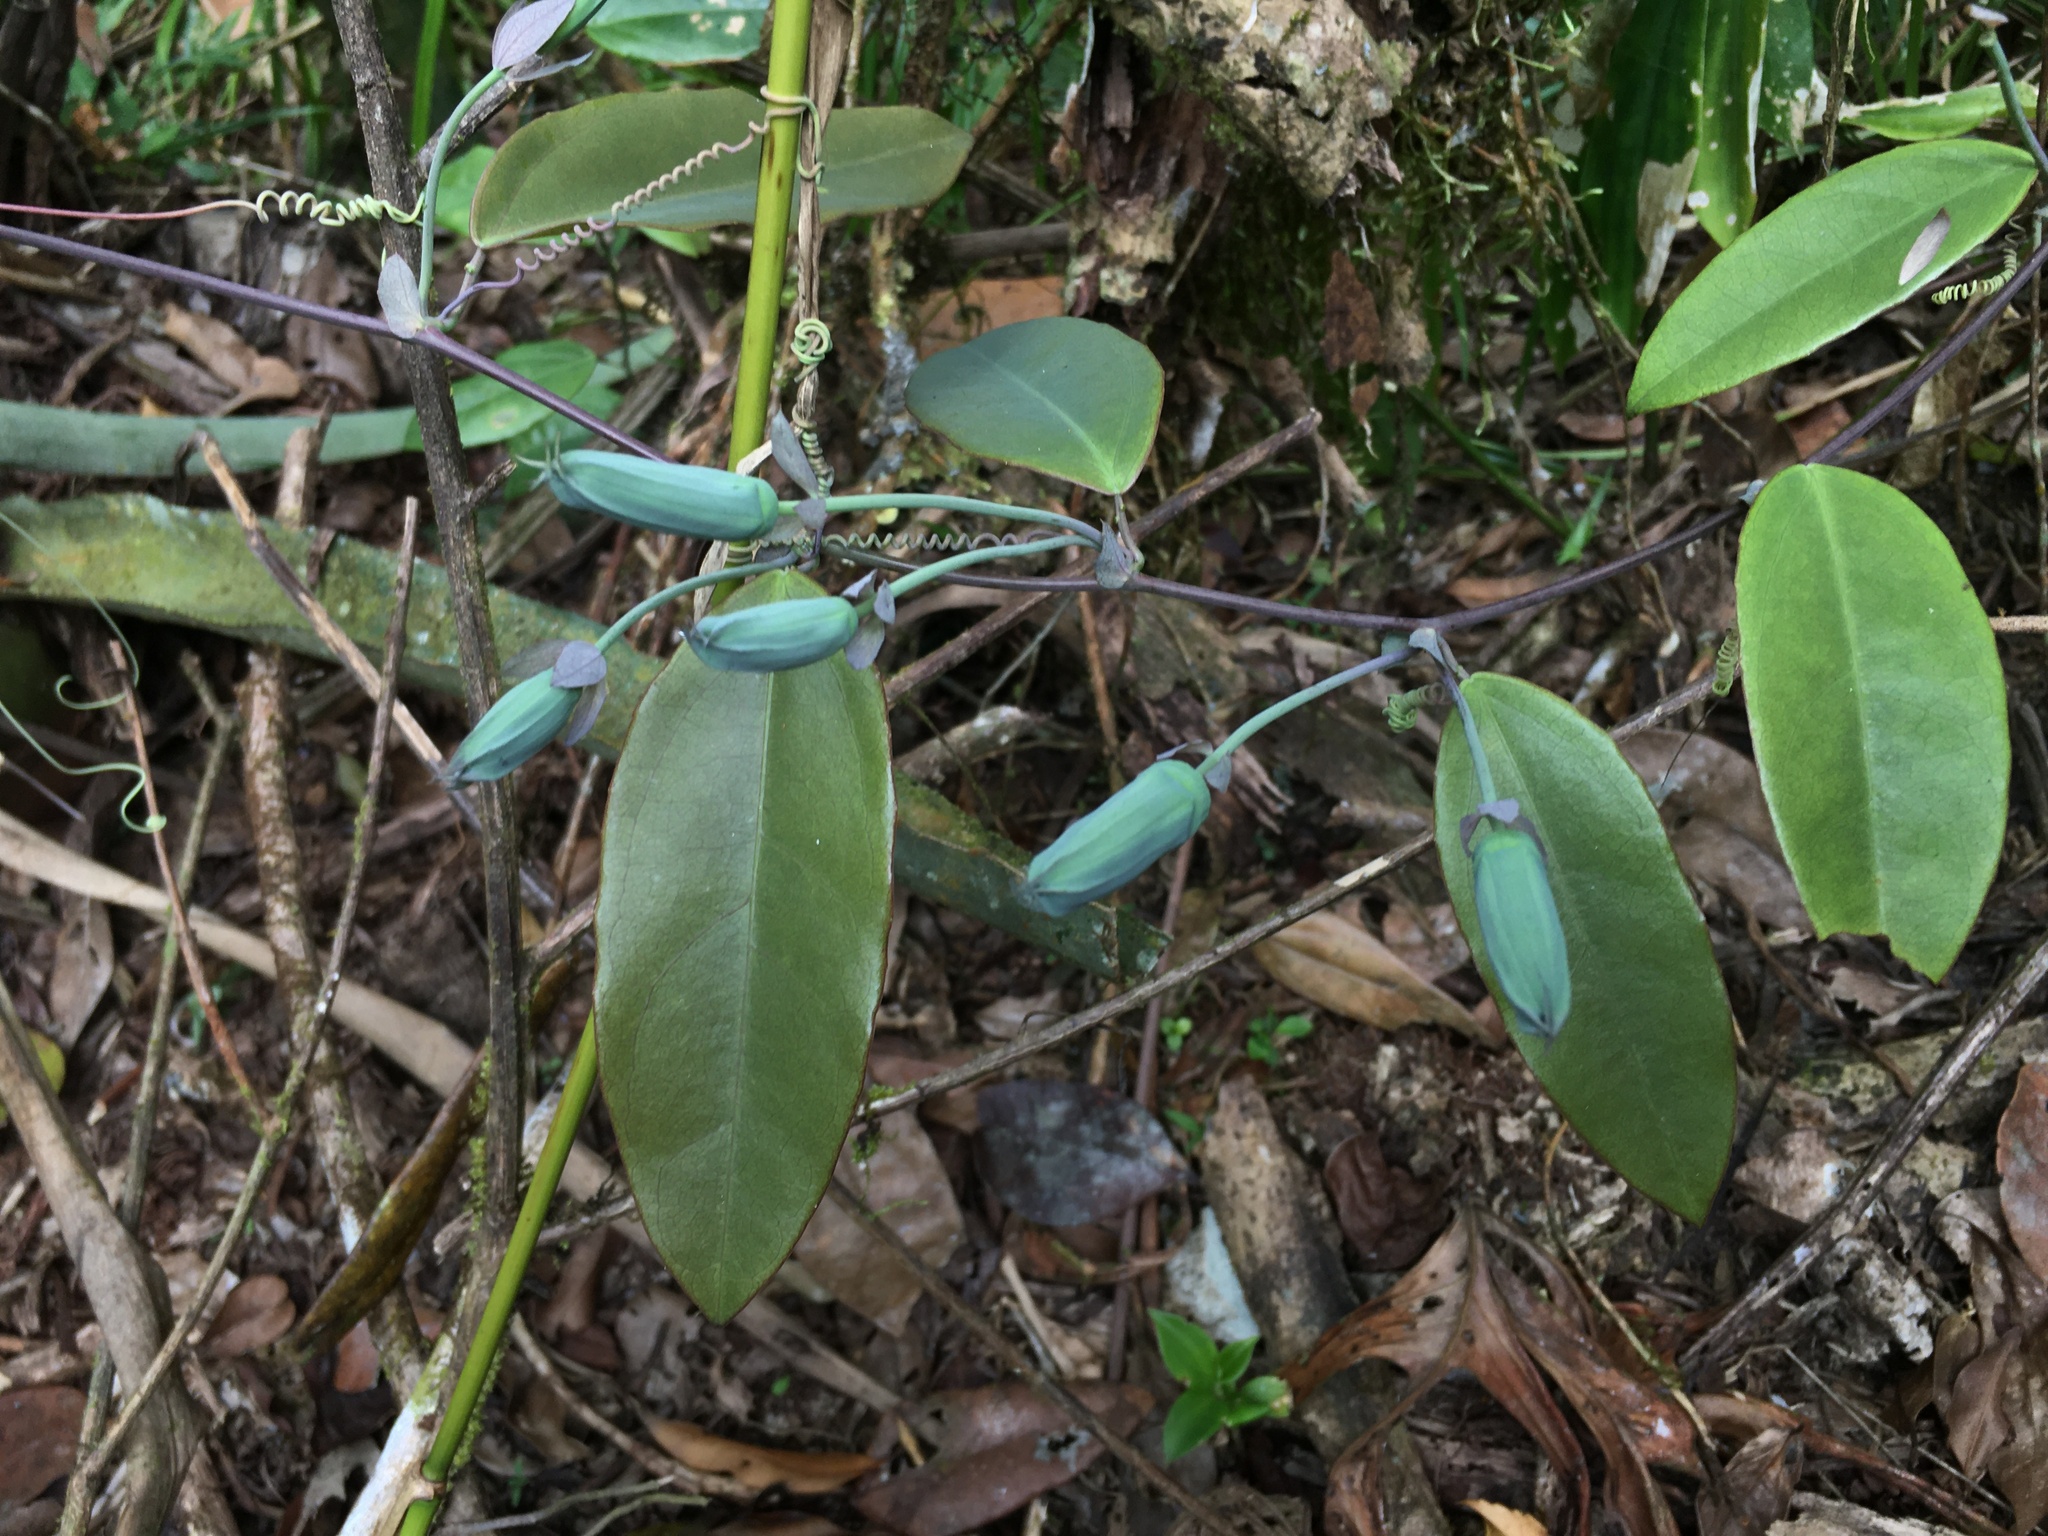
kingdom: Plantae
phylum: Tracheophyta
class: Magnoliopsida
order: Malpighiales
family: Passifloraceae
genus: Passiflora
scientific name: Passiflora silvestris
